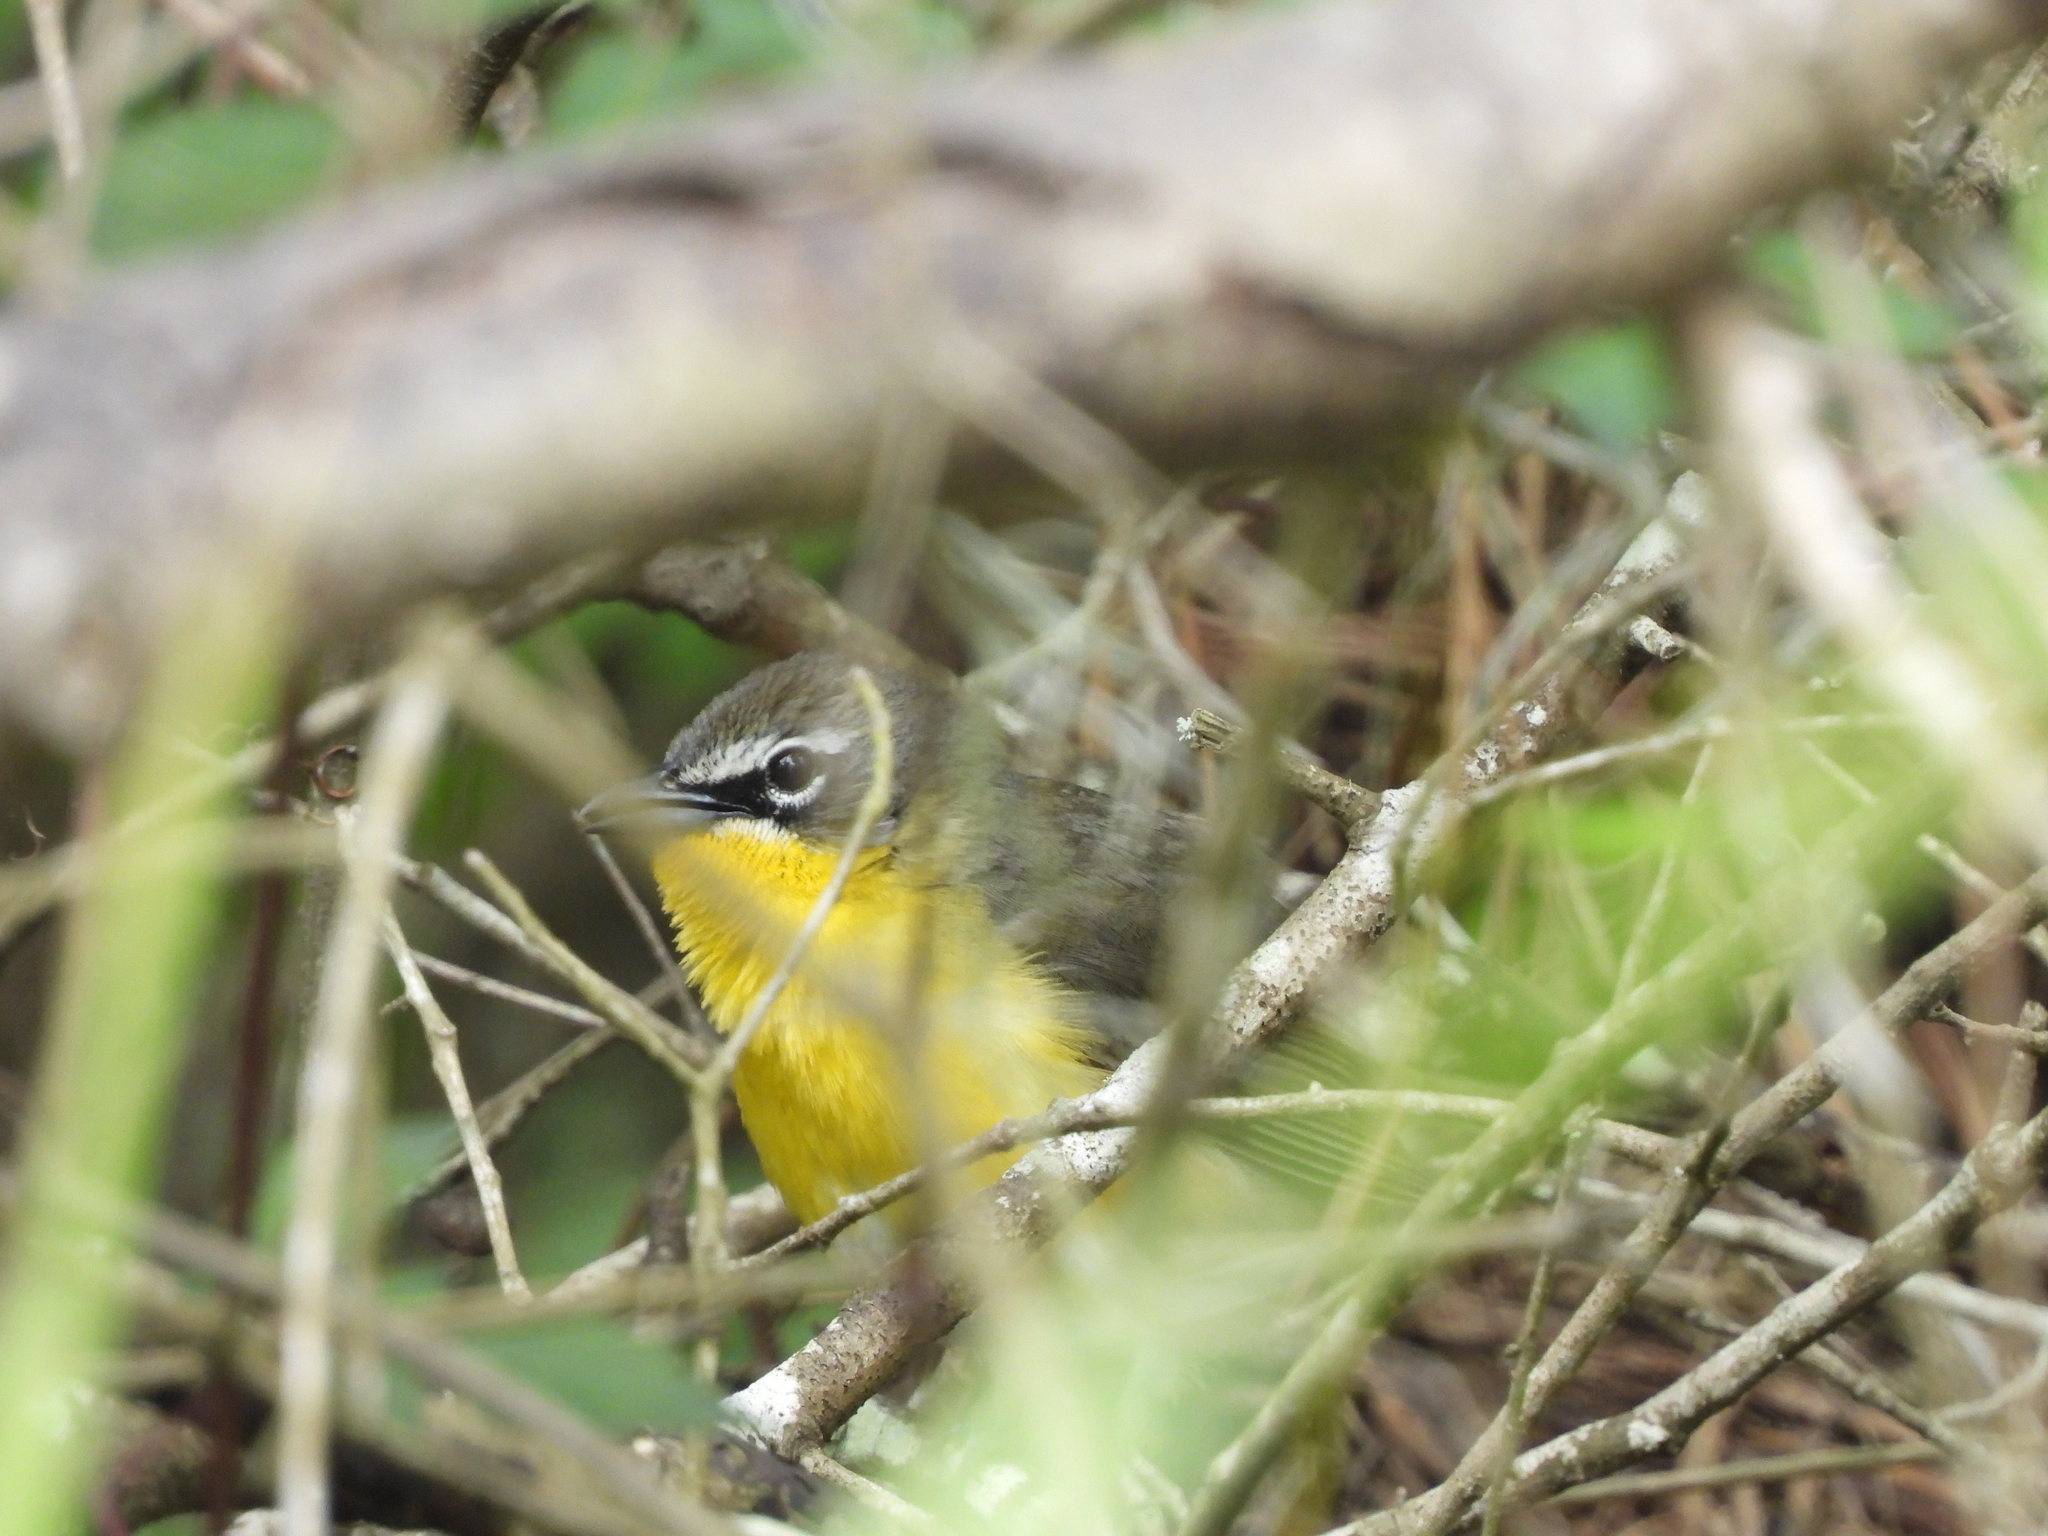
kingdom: Animalia
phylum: Chordata
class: Aves
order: Passeriformes
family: Parulidae
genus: Icteria
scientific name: Icteria virens
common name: Yellow-breasted chat
